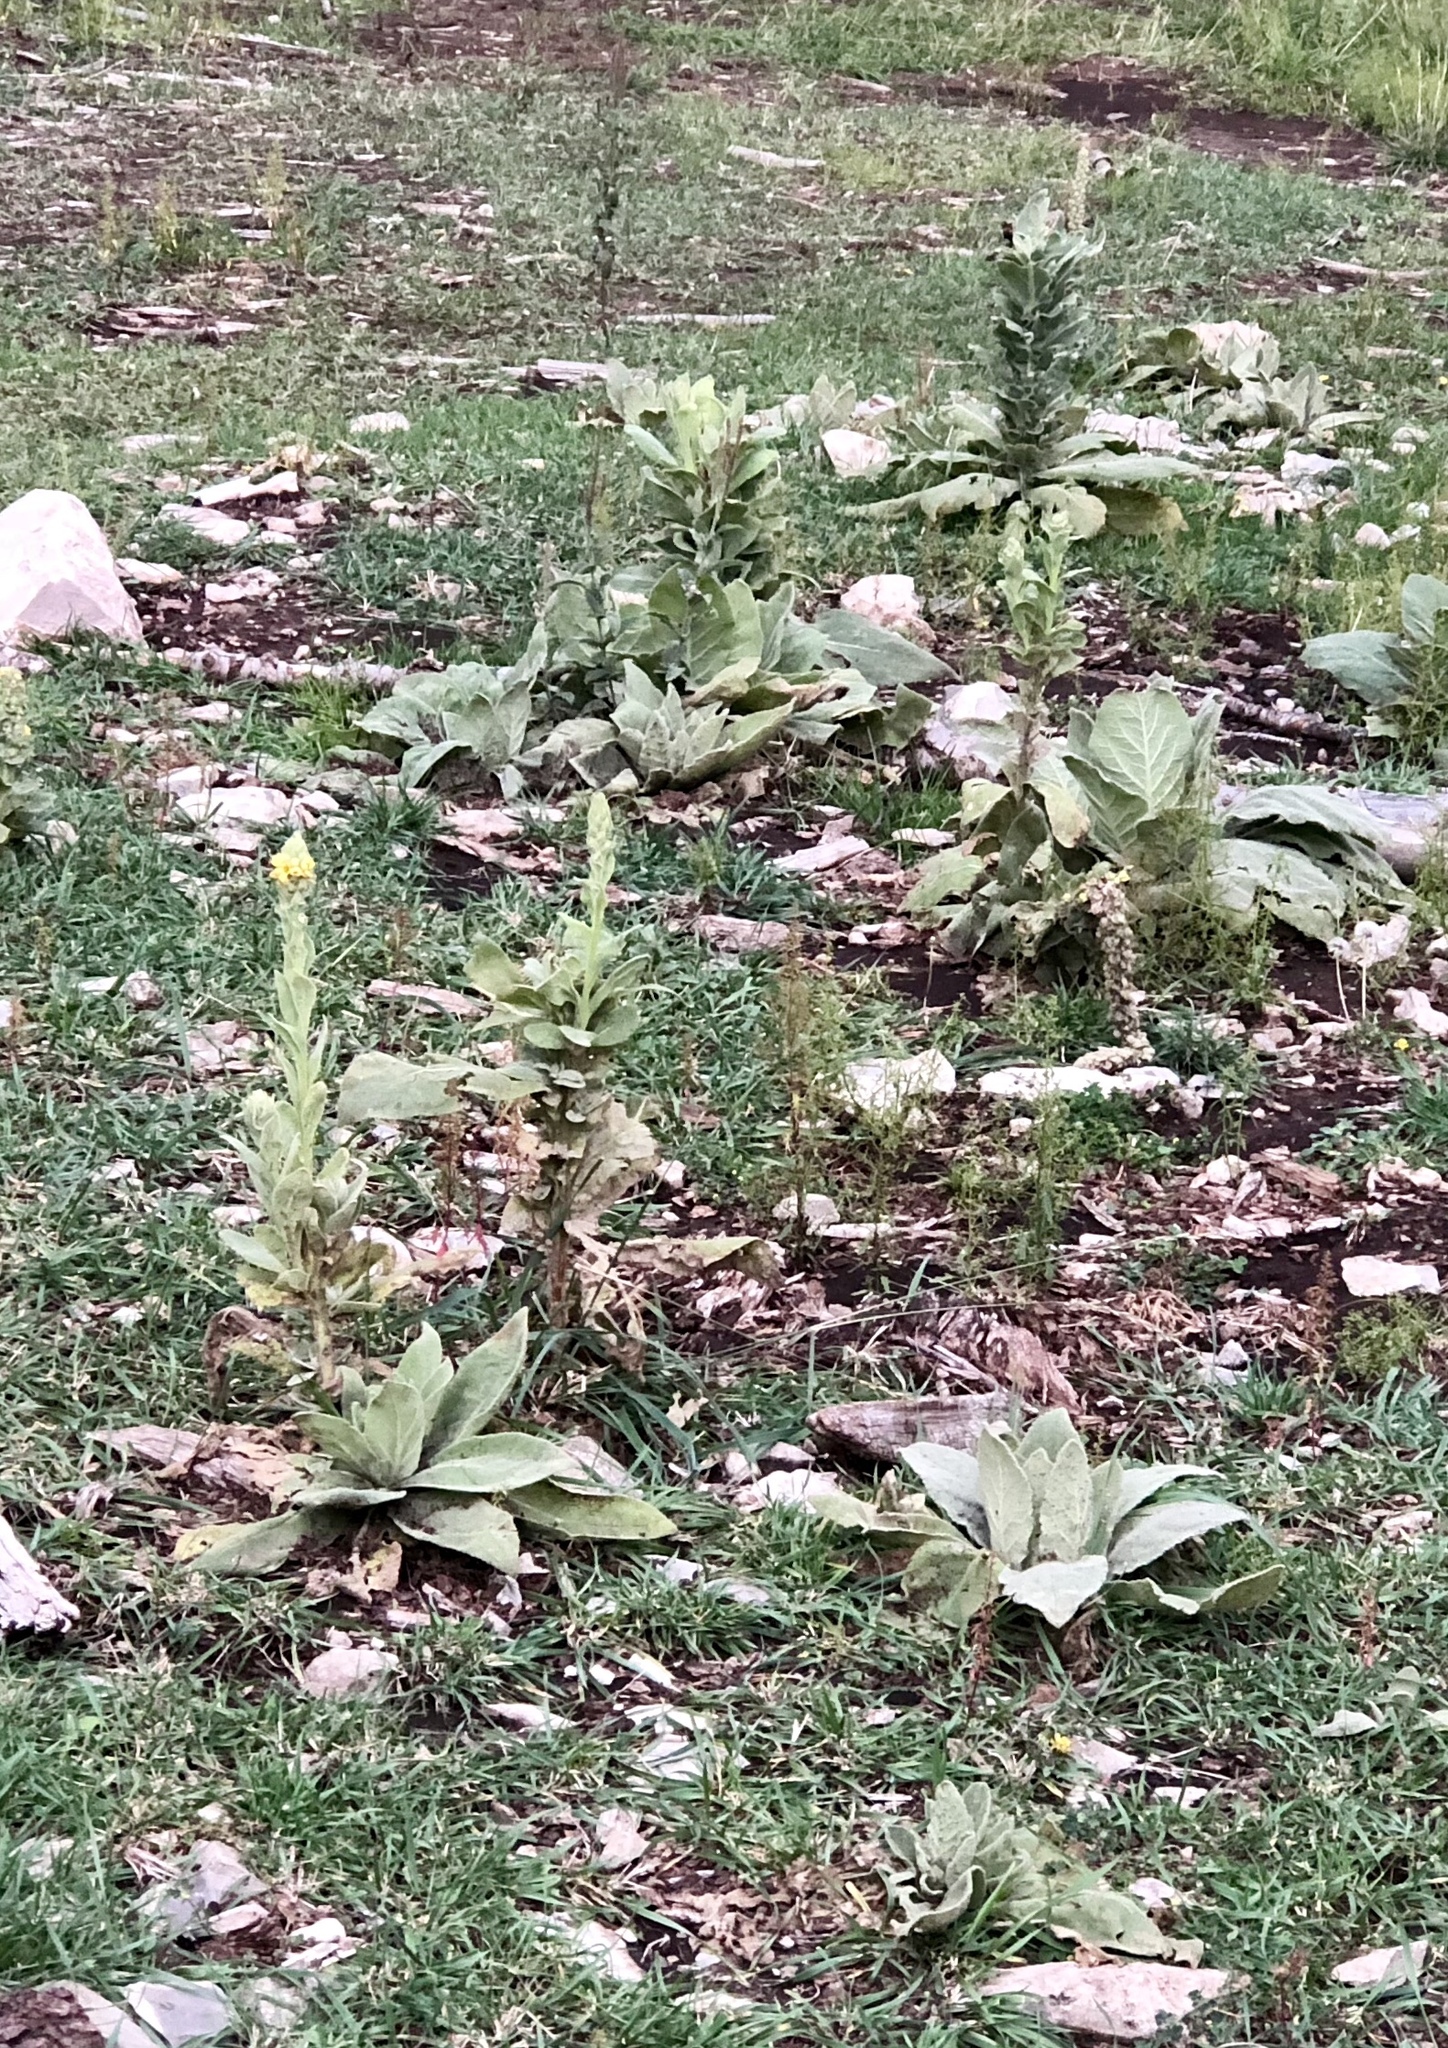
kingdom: Plantae
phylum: Tracheophyta
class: Magnoliopsida
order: Lamiales
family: Scrophulariaceae
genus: Verbascum
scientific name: Verbascum thapsus
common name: Common mullein
